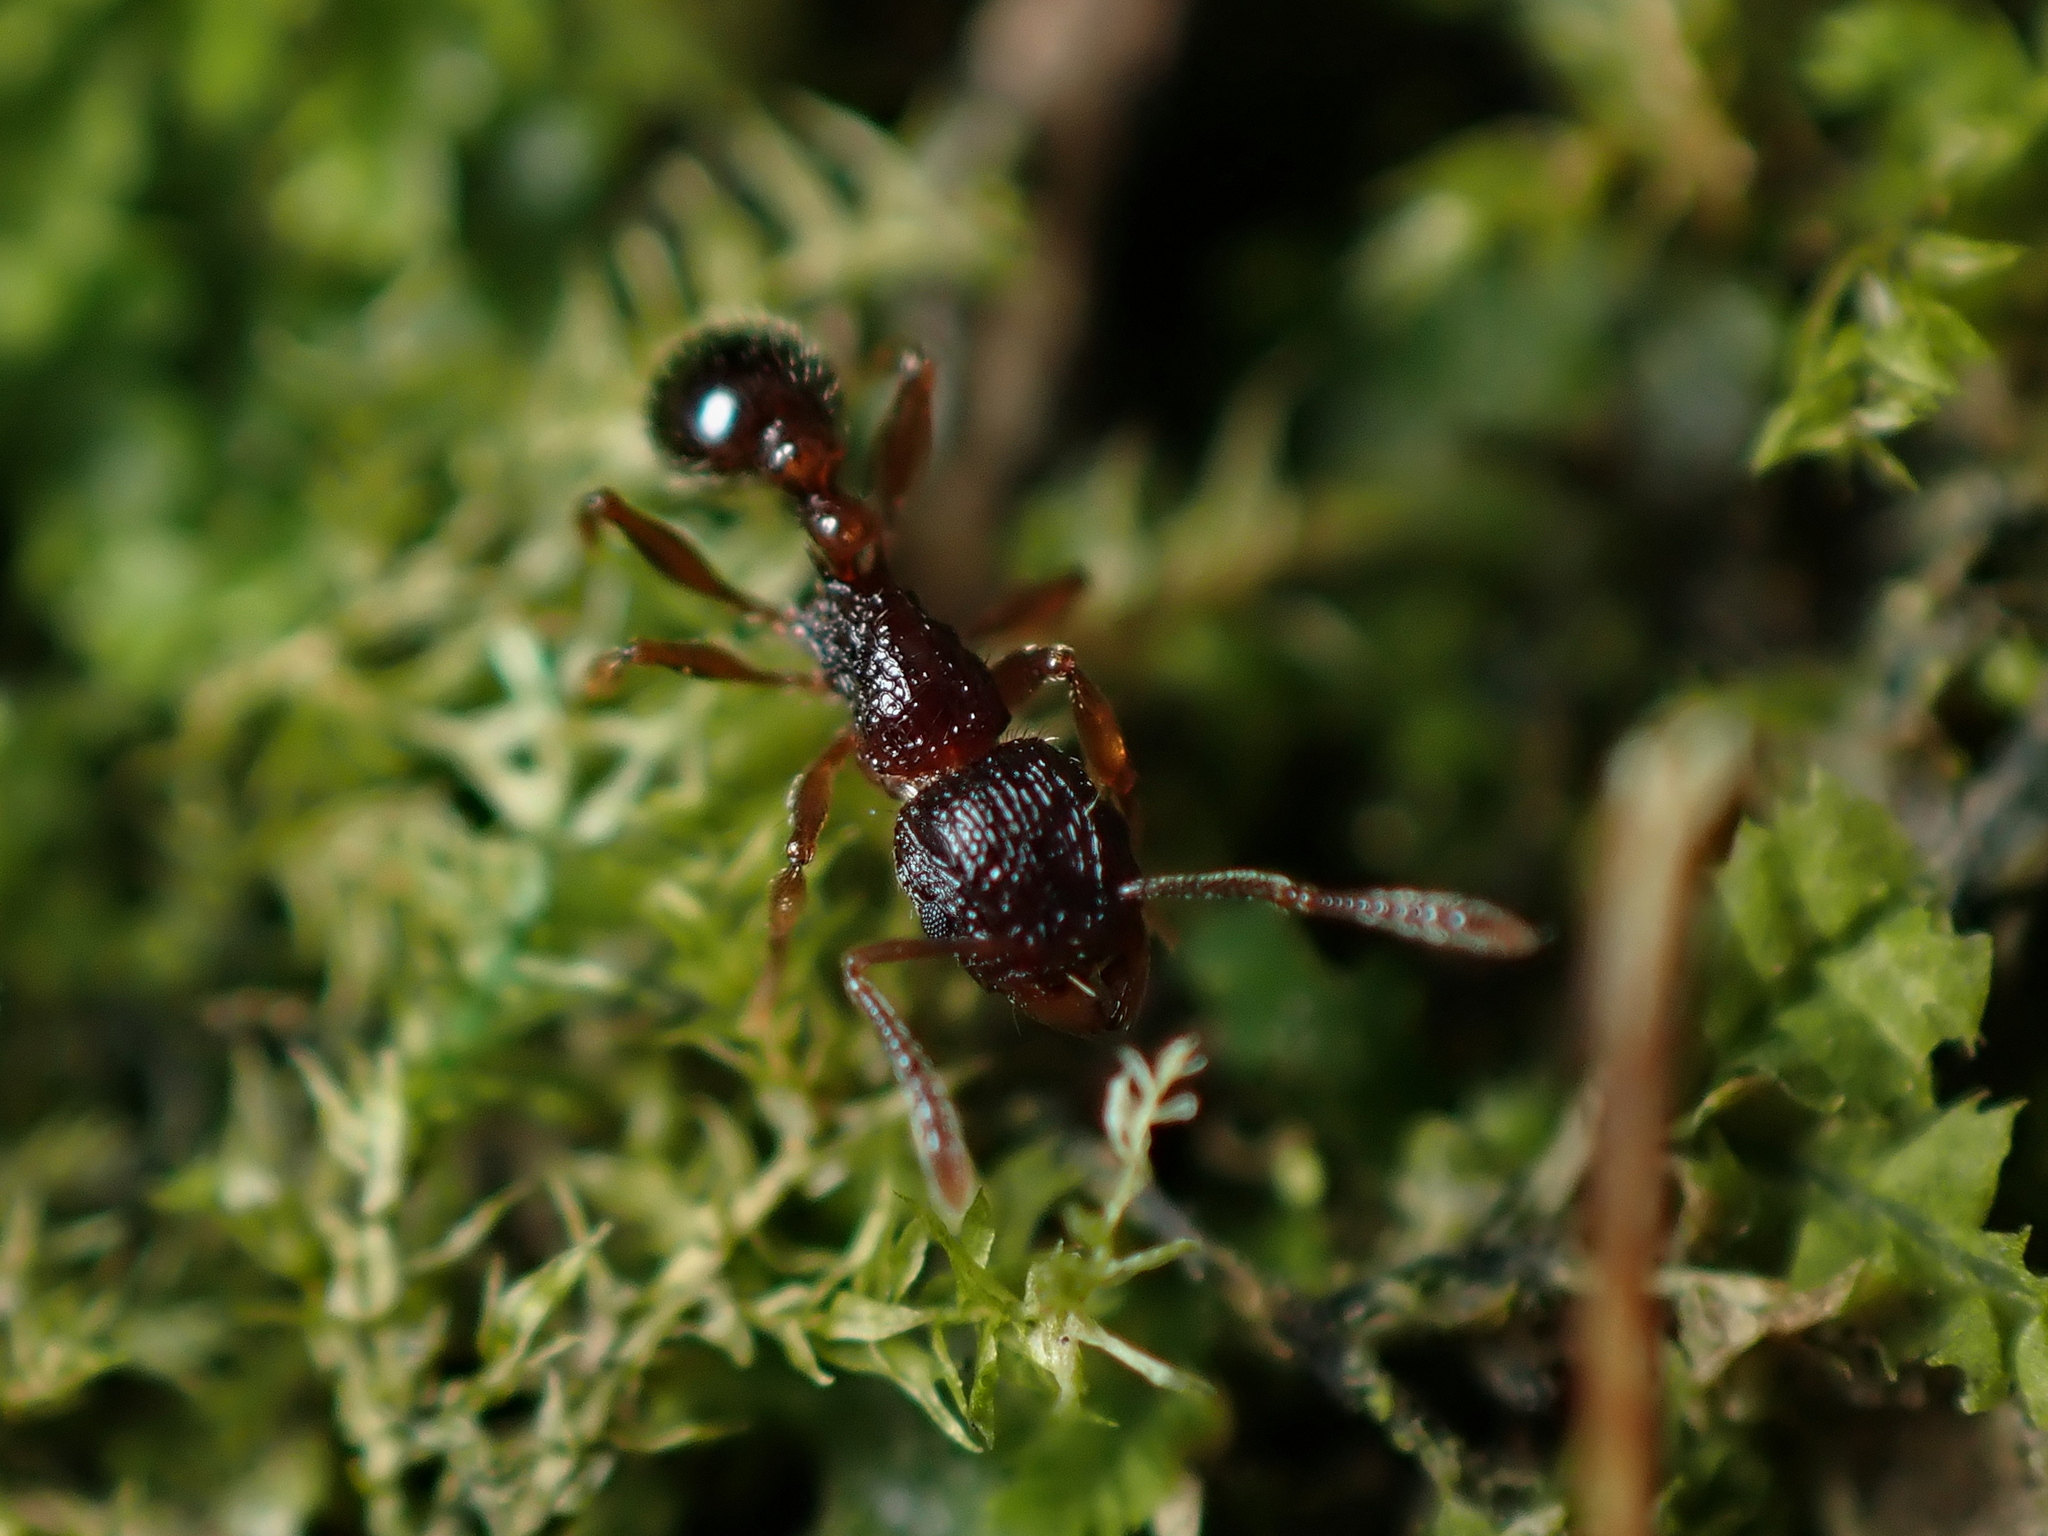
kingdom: Animalia
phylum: Arthropoda
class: Insecta
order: Hymenoptera
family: Formicidae
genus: Tetramorium
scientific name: Tetramorium grassii
